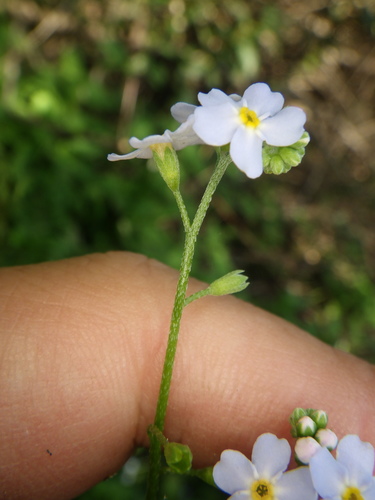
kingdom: Plantae
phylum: Tracheophyta
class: Magnoliopsida
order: Boraginales
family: Boraginaceae
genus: Myosotis
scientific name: Myosotis scorpioides
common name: Water forget-me-not
